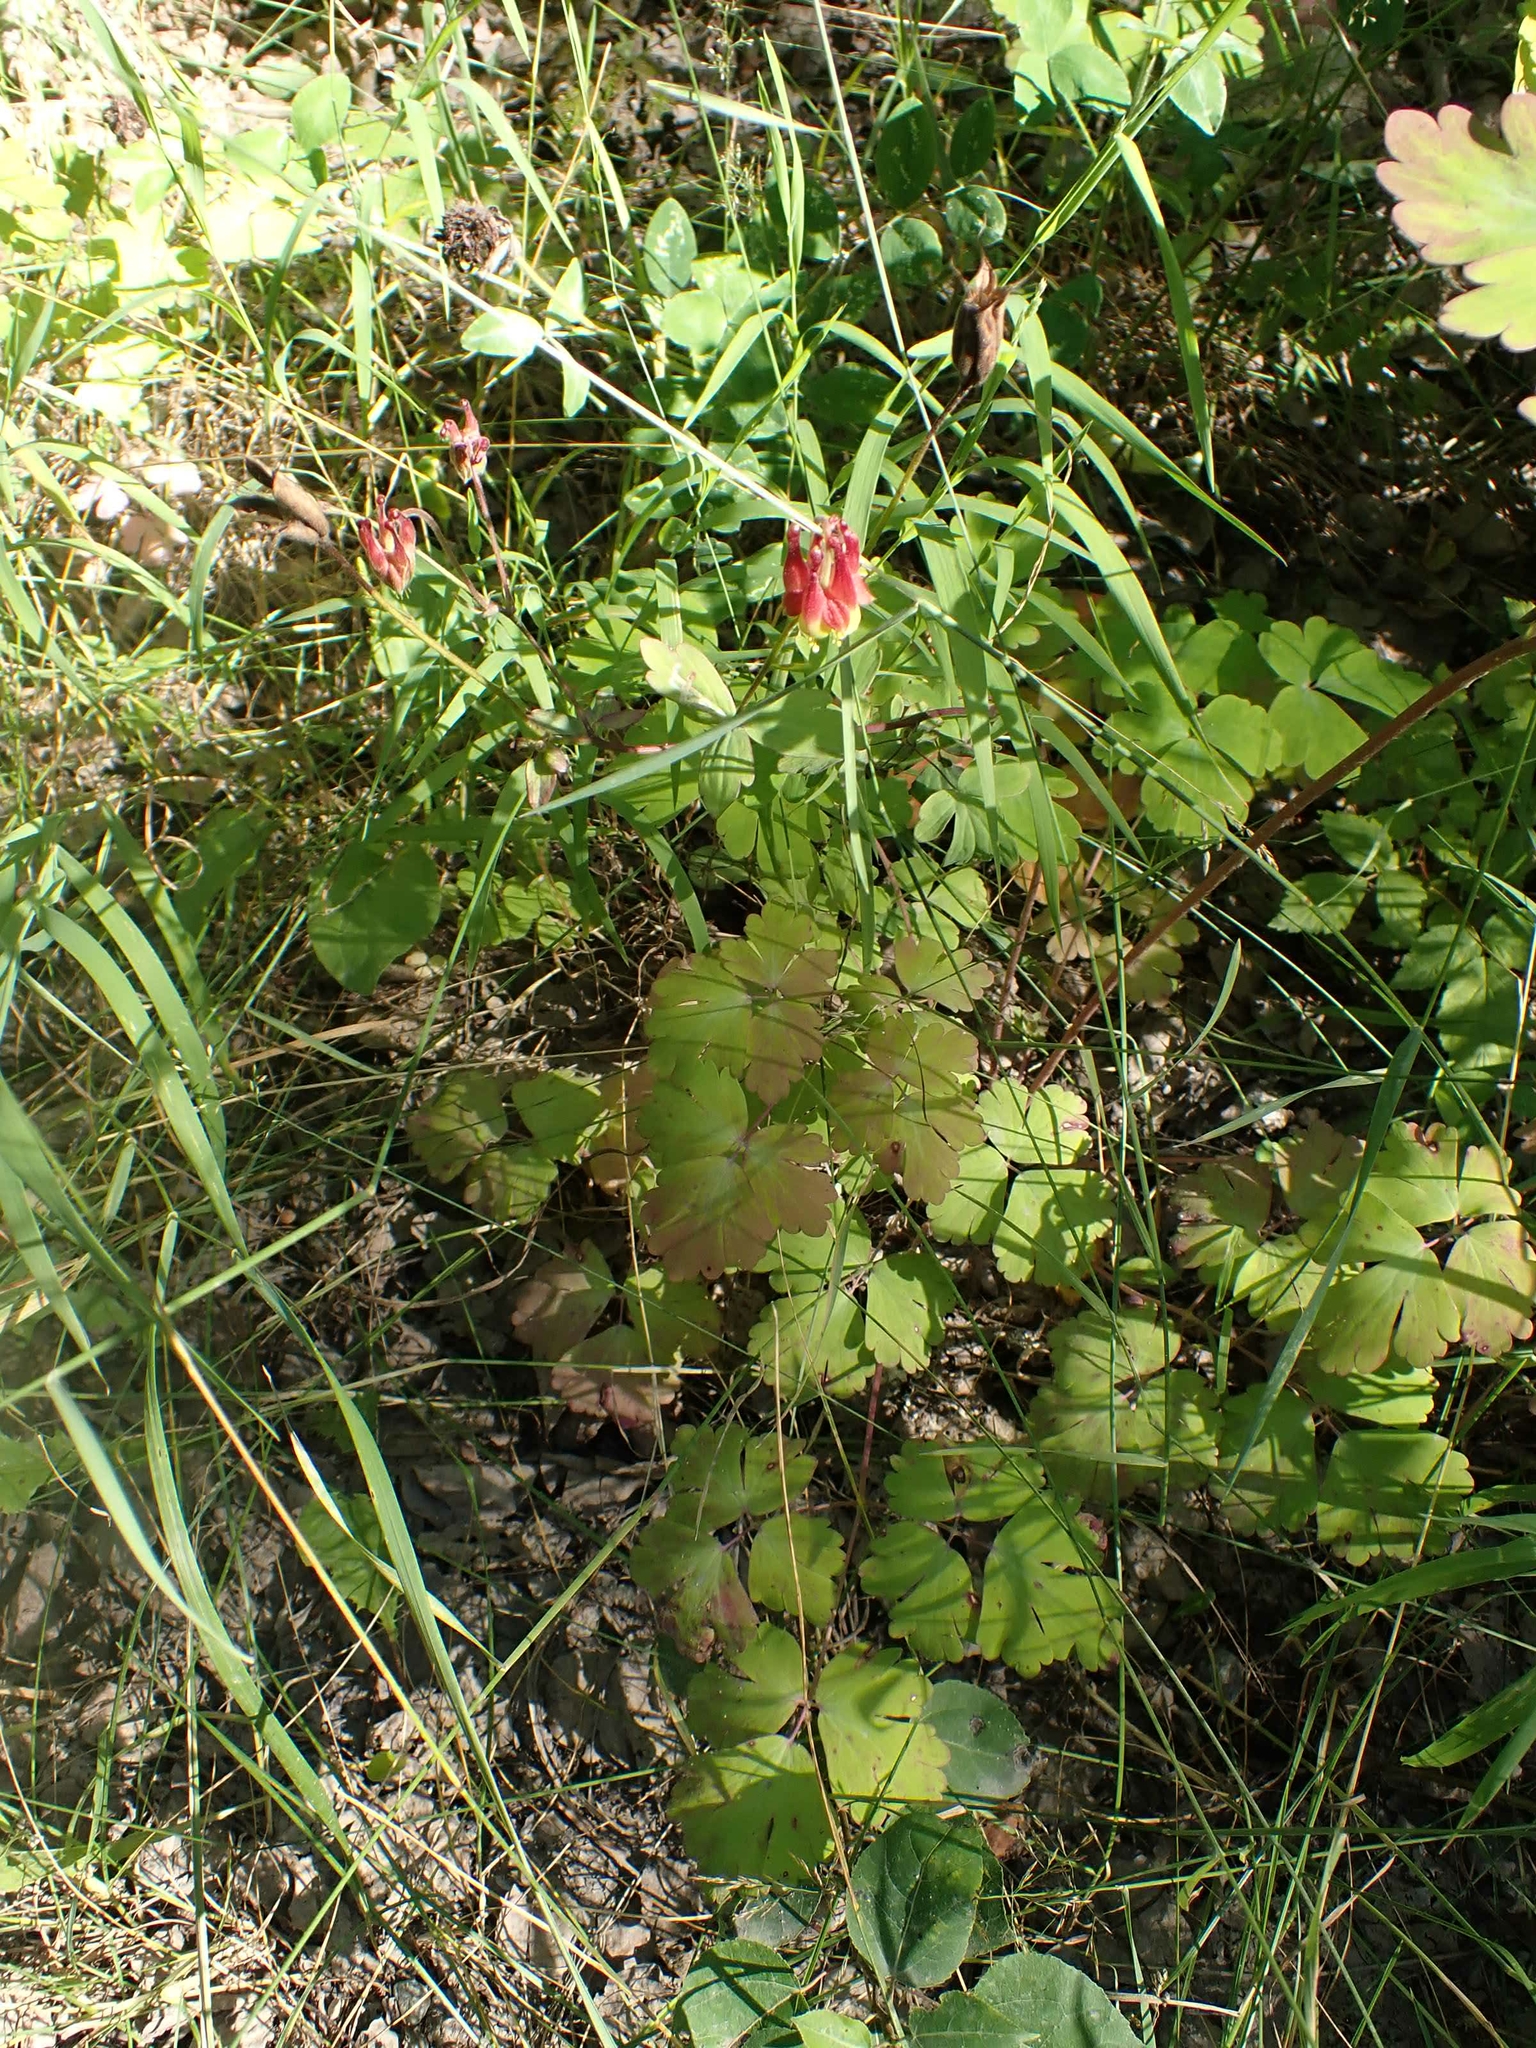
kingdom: Plantae
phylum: Tracheophyta
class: Magnoliopsida
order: Ranunculales
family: Ranunculaceae
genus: Aquilegia
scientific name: Aquilegia canadensis
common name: American columbine
